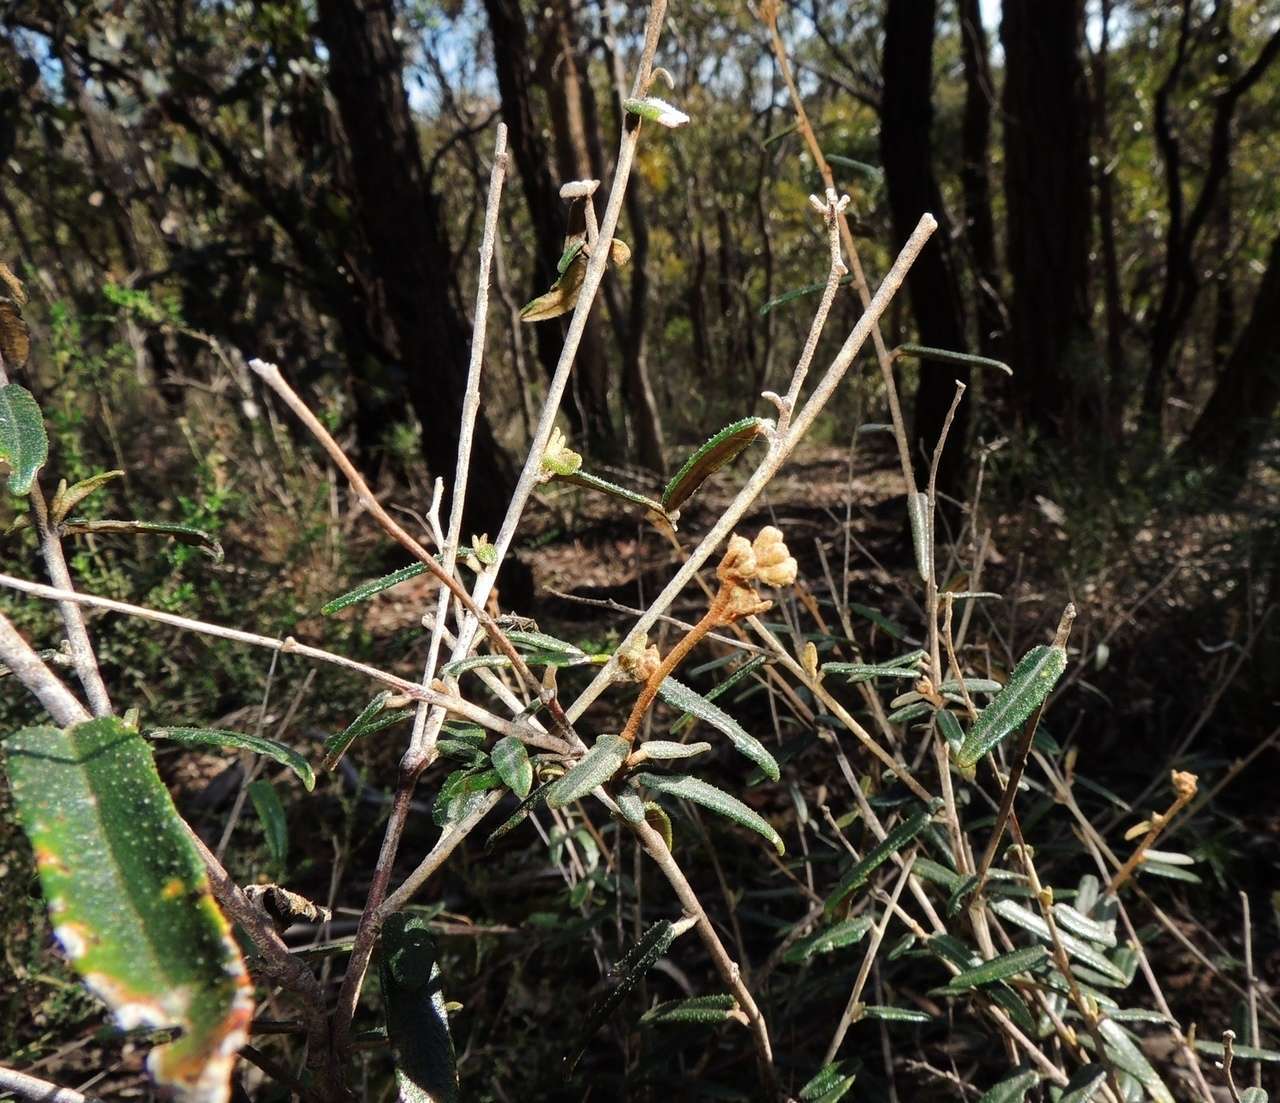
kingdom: Plantae
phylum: Tracheophyta
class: Magnoliopsida
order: Apiales
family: Araliaceae
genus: Astrotricha
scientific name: Astrotricha ledifolia
